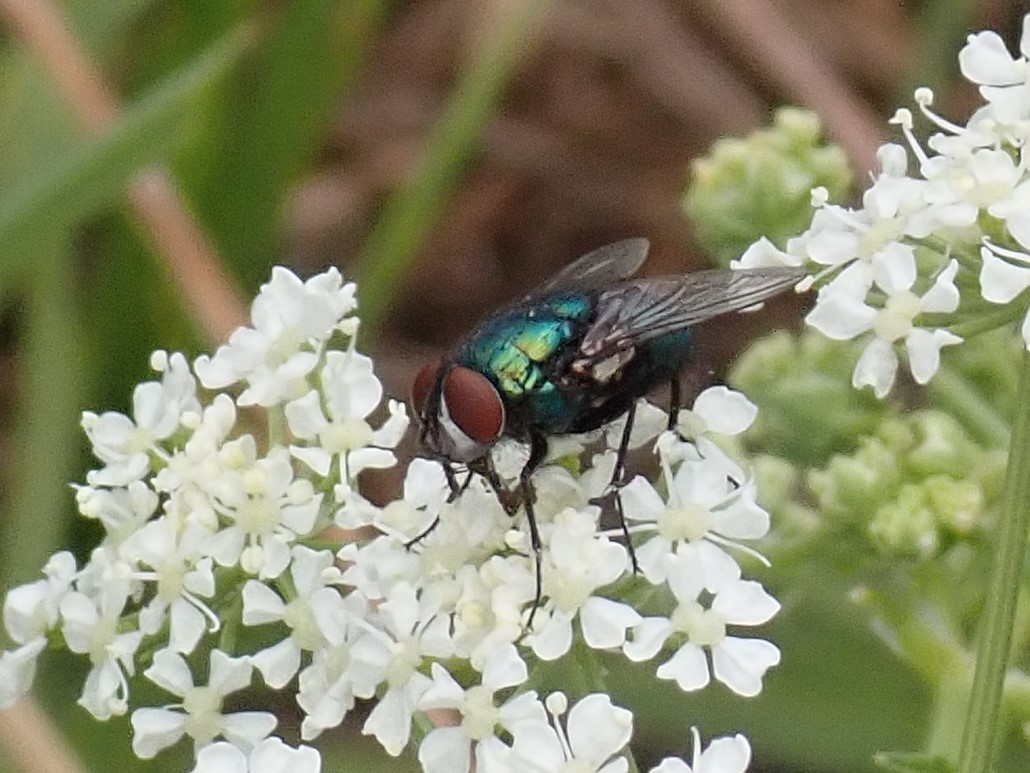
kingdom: Animalia
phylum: Arthropoda
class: Insecta
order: Diptera
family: Calliphoridae
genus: Lucilia
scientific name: Lucilia sericata
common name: Blow fly
